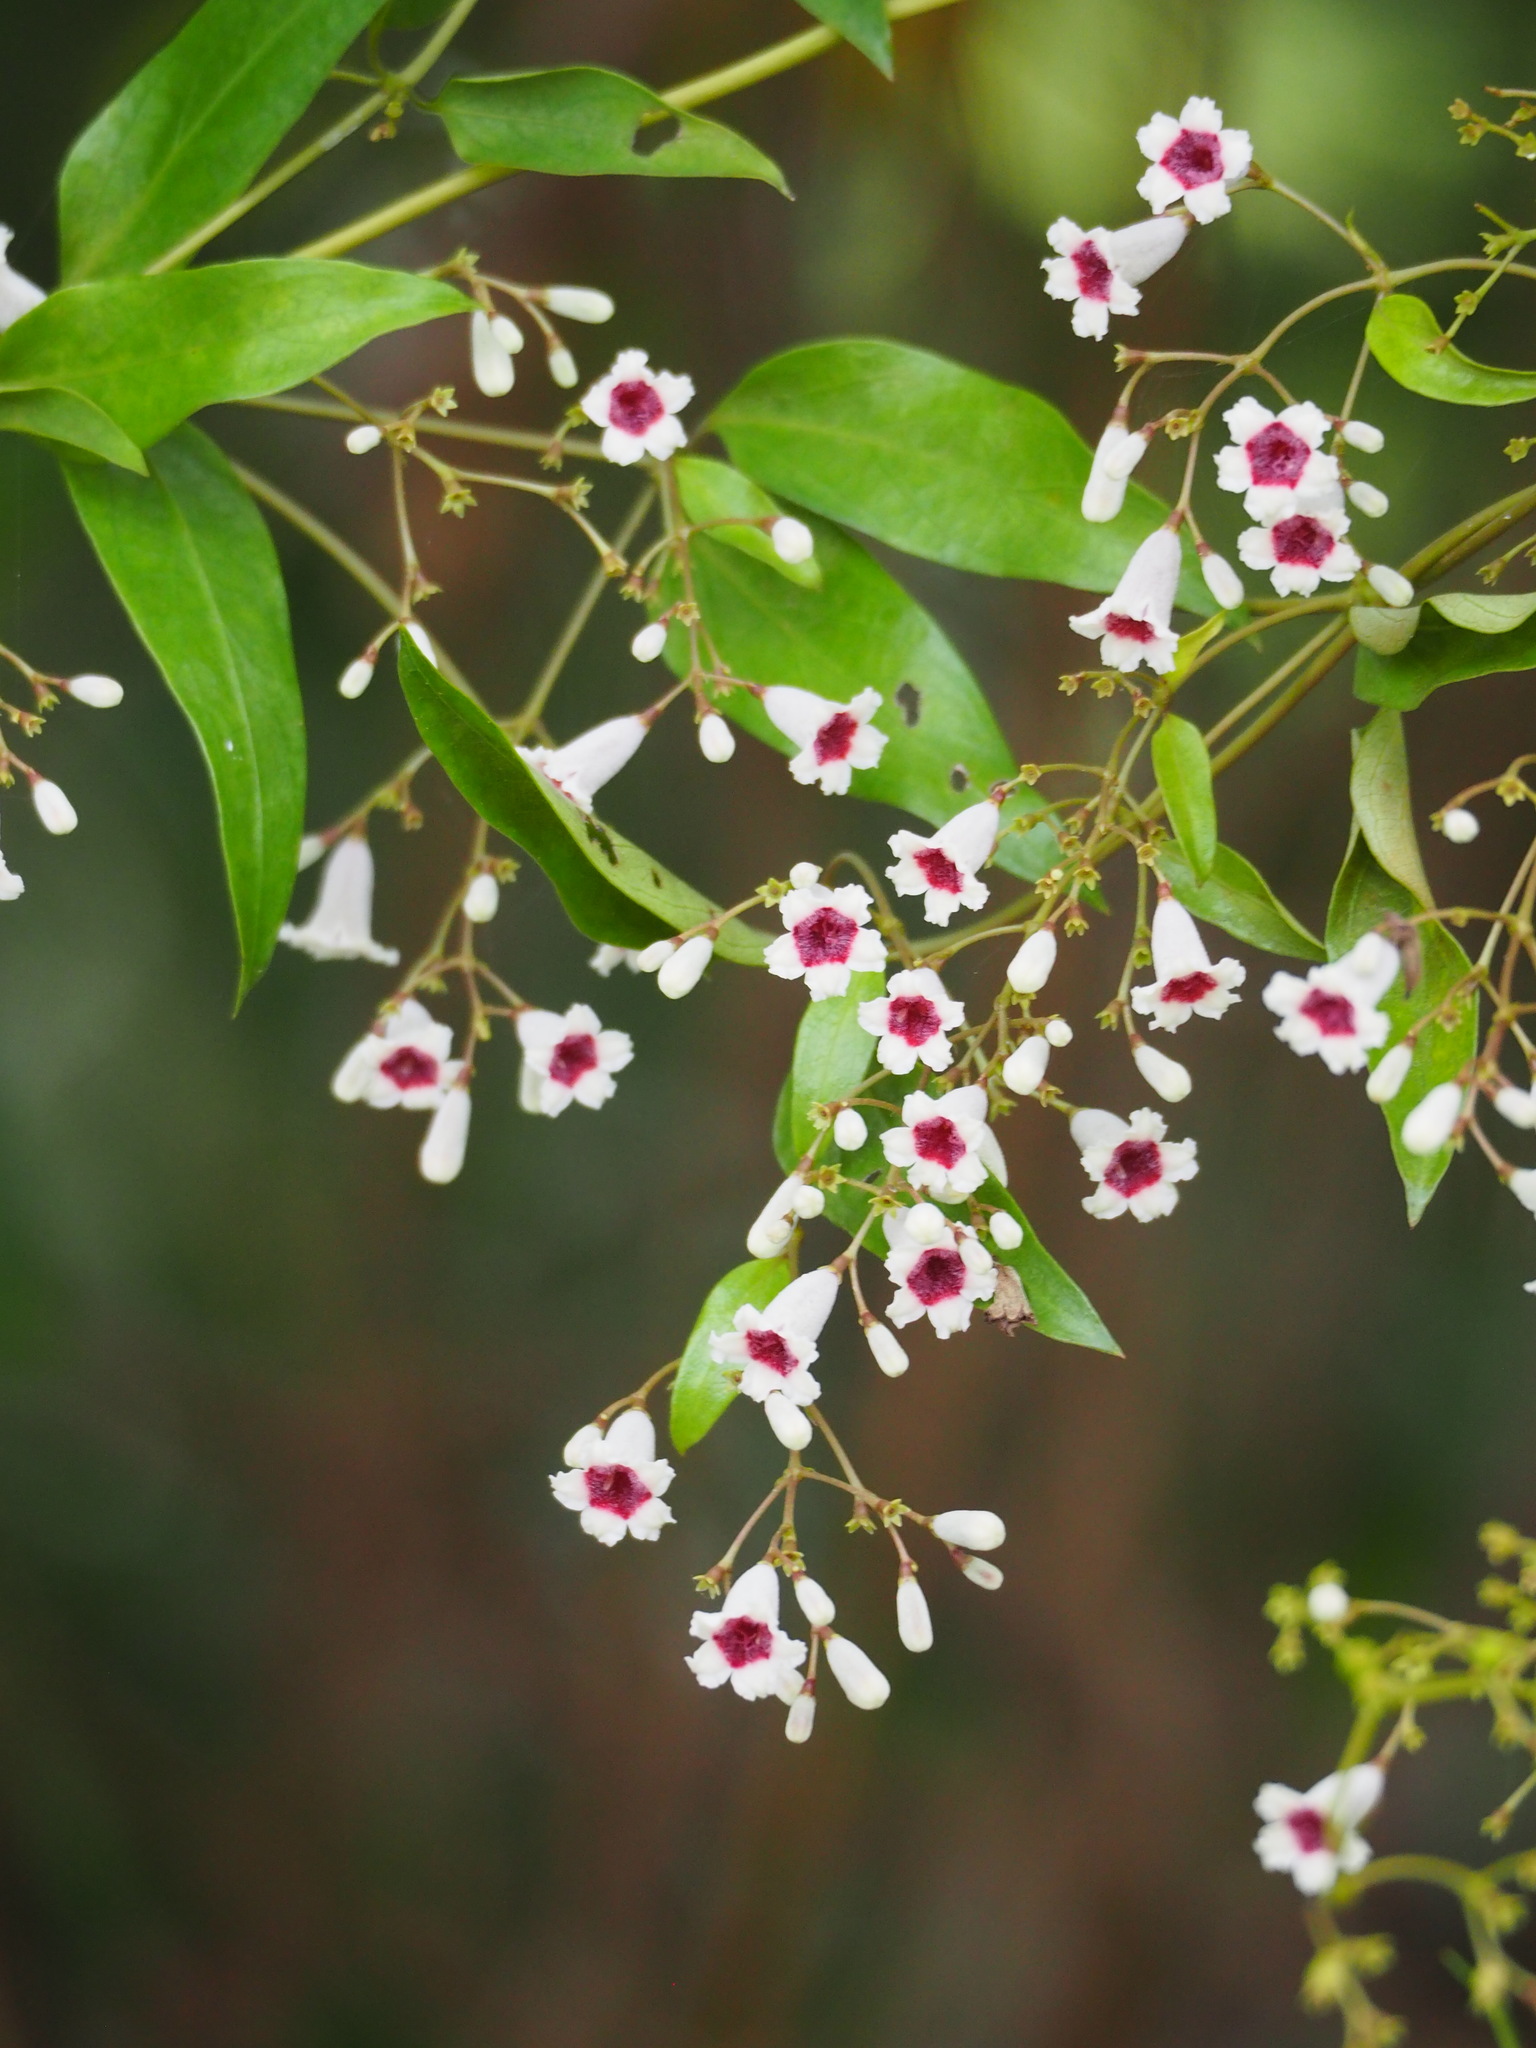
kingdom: Plantae
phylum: Tracheophyta
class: Magnoliopsida
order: Gentianales
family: Rubiaceae
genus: Paederia
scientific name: Paederia foetida
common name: Stinkvine
